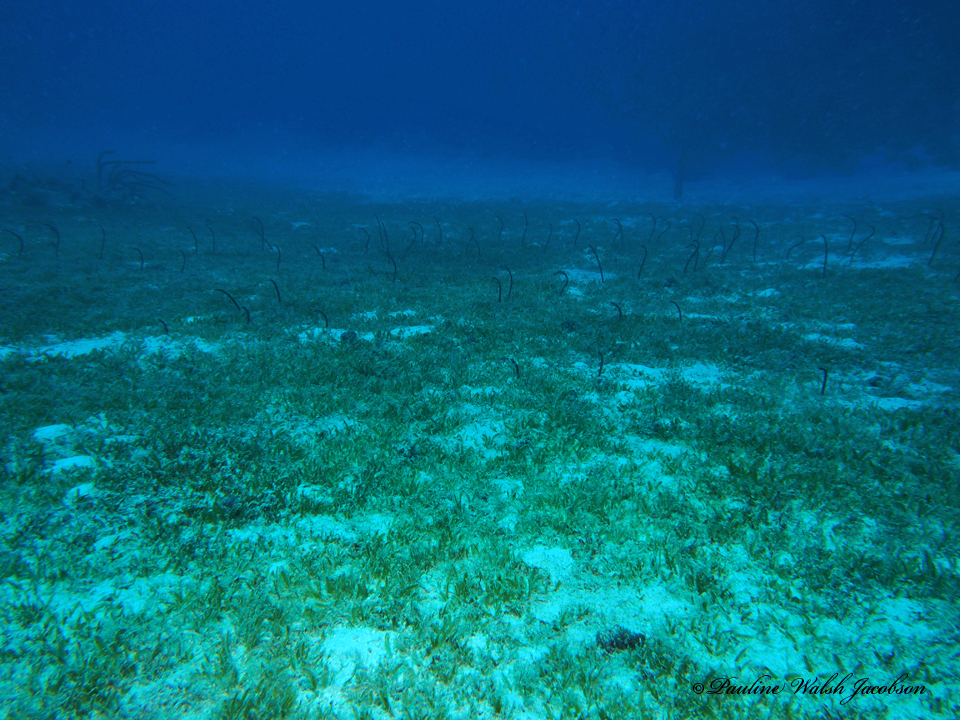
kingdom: Animalia
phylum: Chordata
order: Anguilliformes
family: Congridae
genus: Heteroconger
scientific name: Heteroconger longissimus
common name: Garden eel
